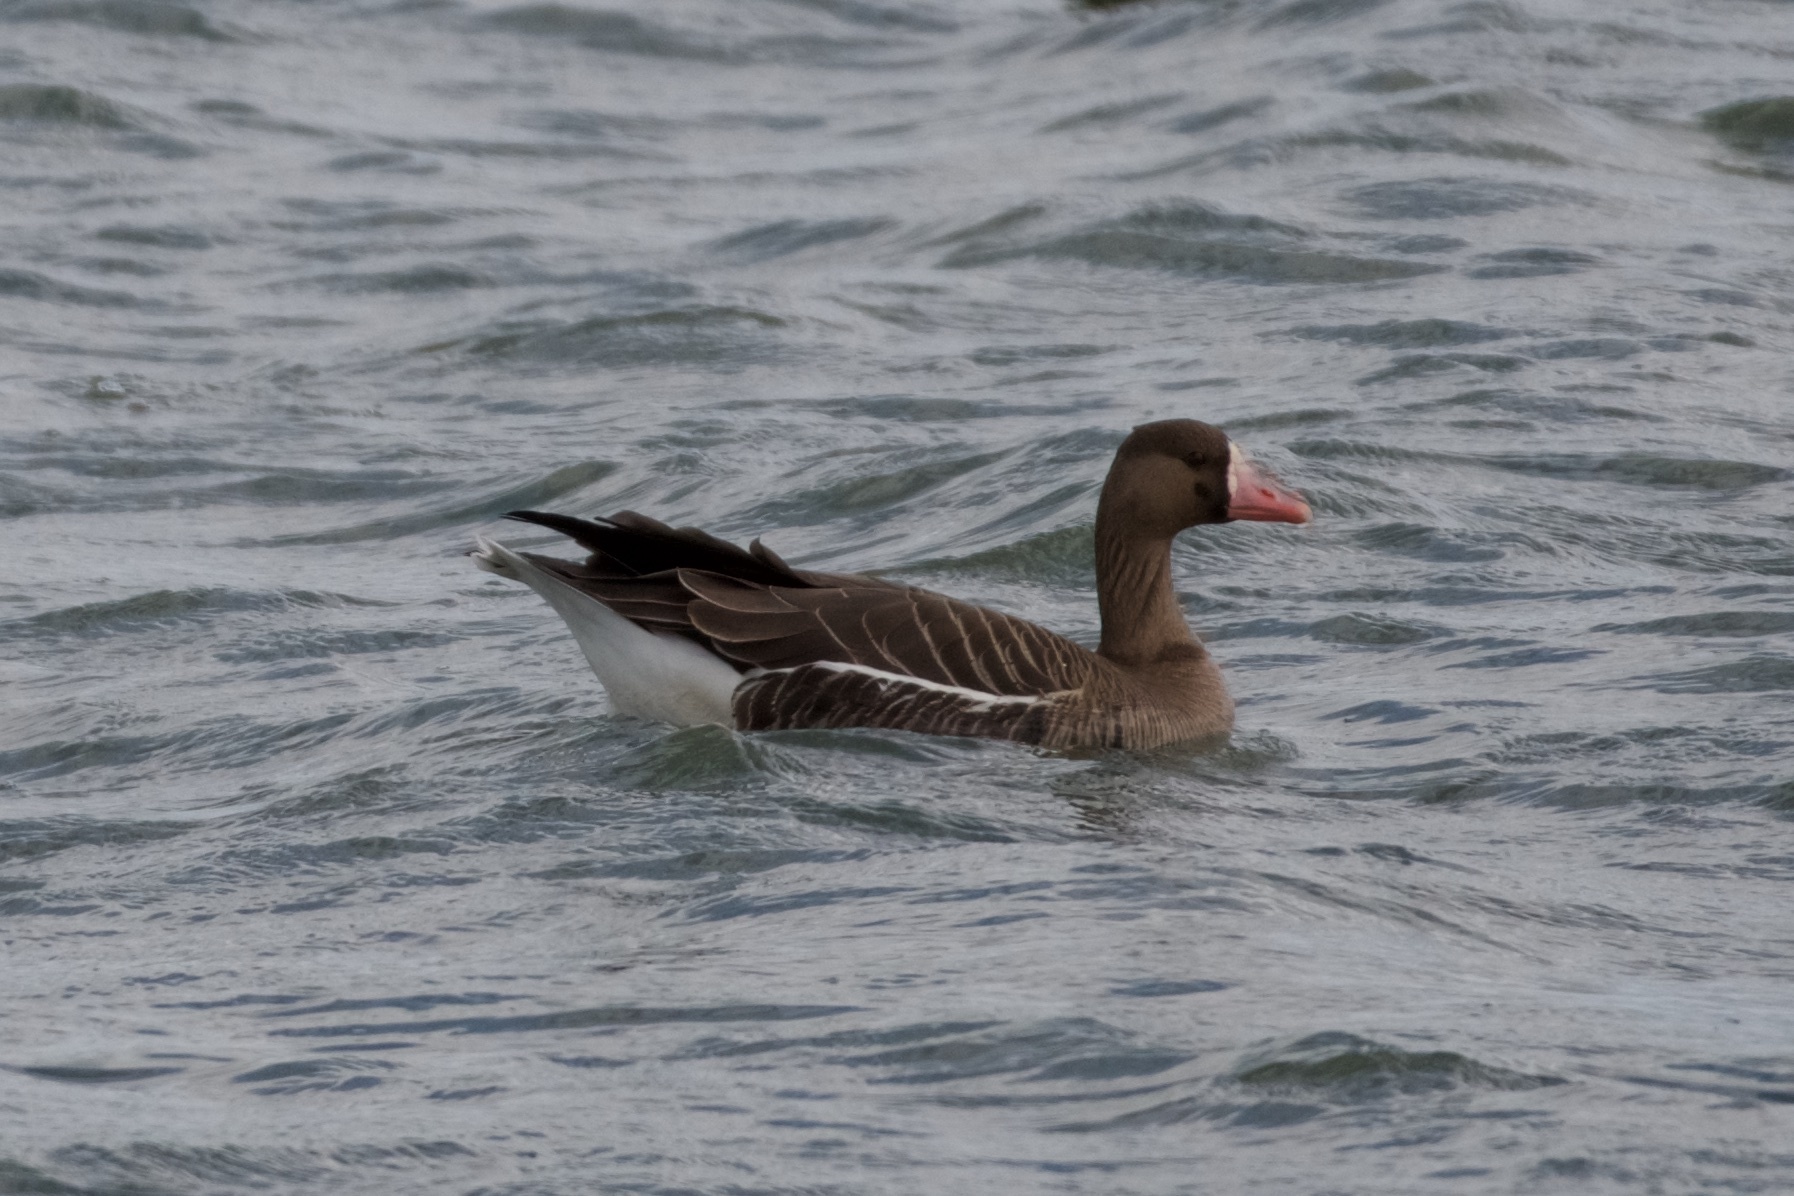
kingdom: Animalia
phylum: Chordata
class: Aves
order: Anseriformes
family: Anatidae
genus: Anser
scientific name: Anser albifrons
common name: Greater white-fronted goose
